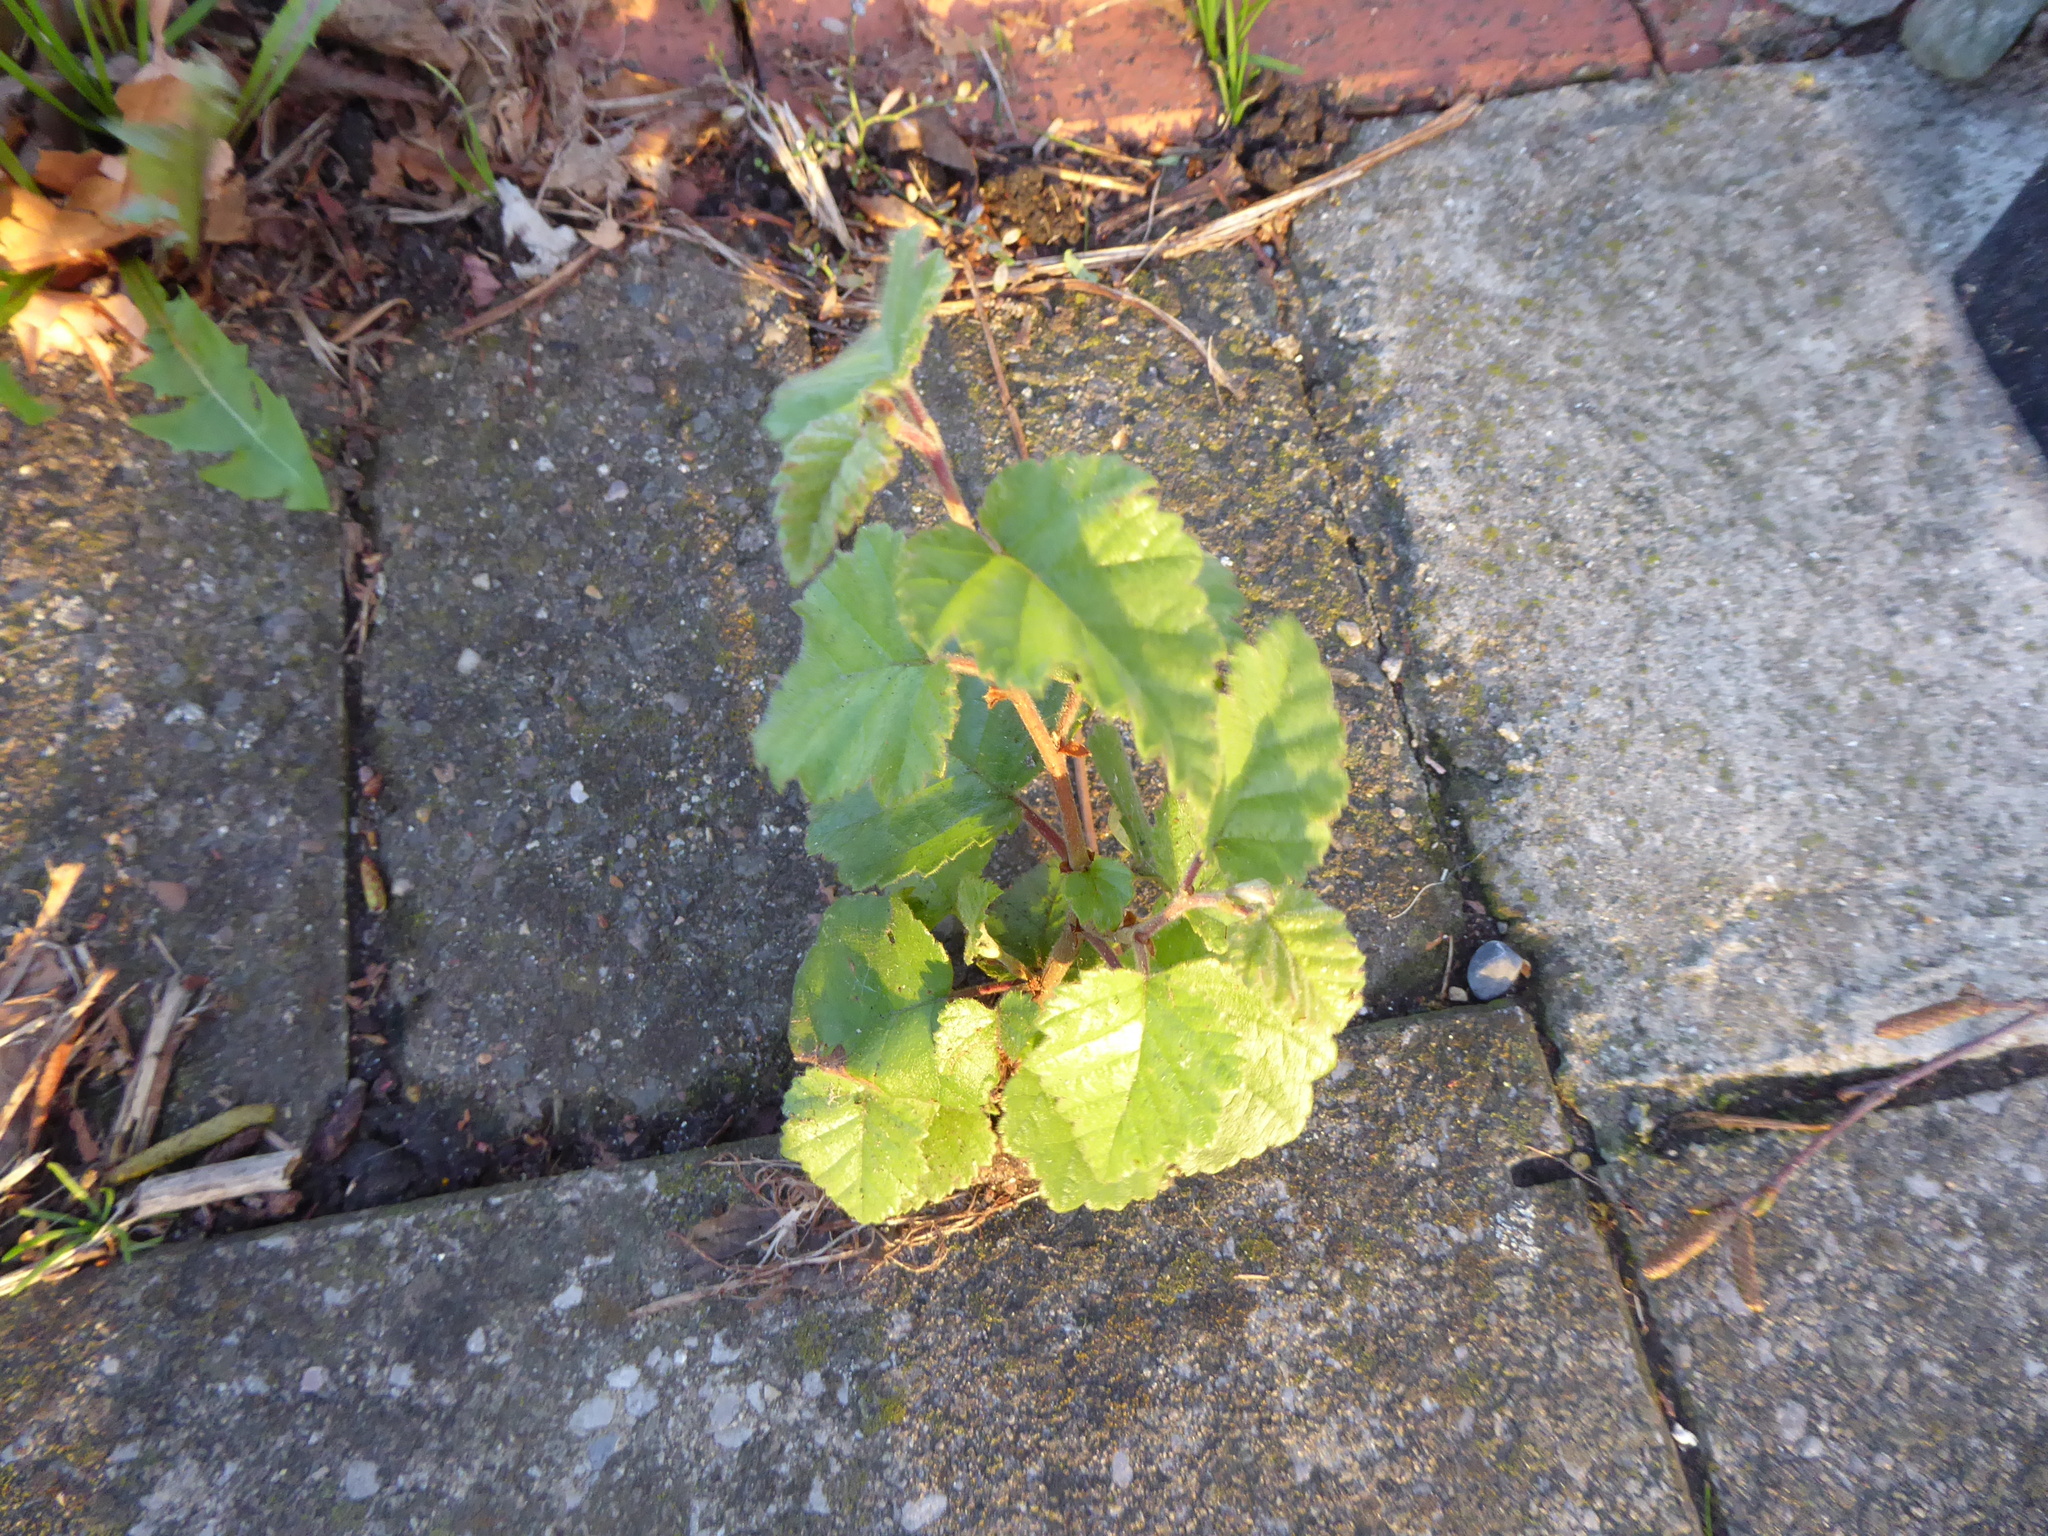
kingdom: Plantae
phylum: Tracheophyta
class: Magnoliopsida
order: Fagales
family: Betulaceae
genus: Betula
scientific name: Betula
